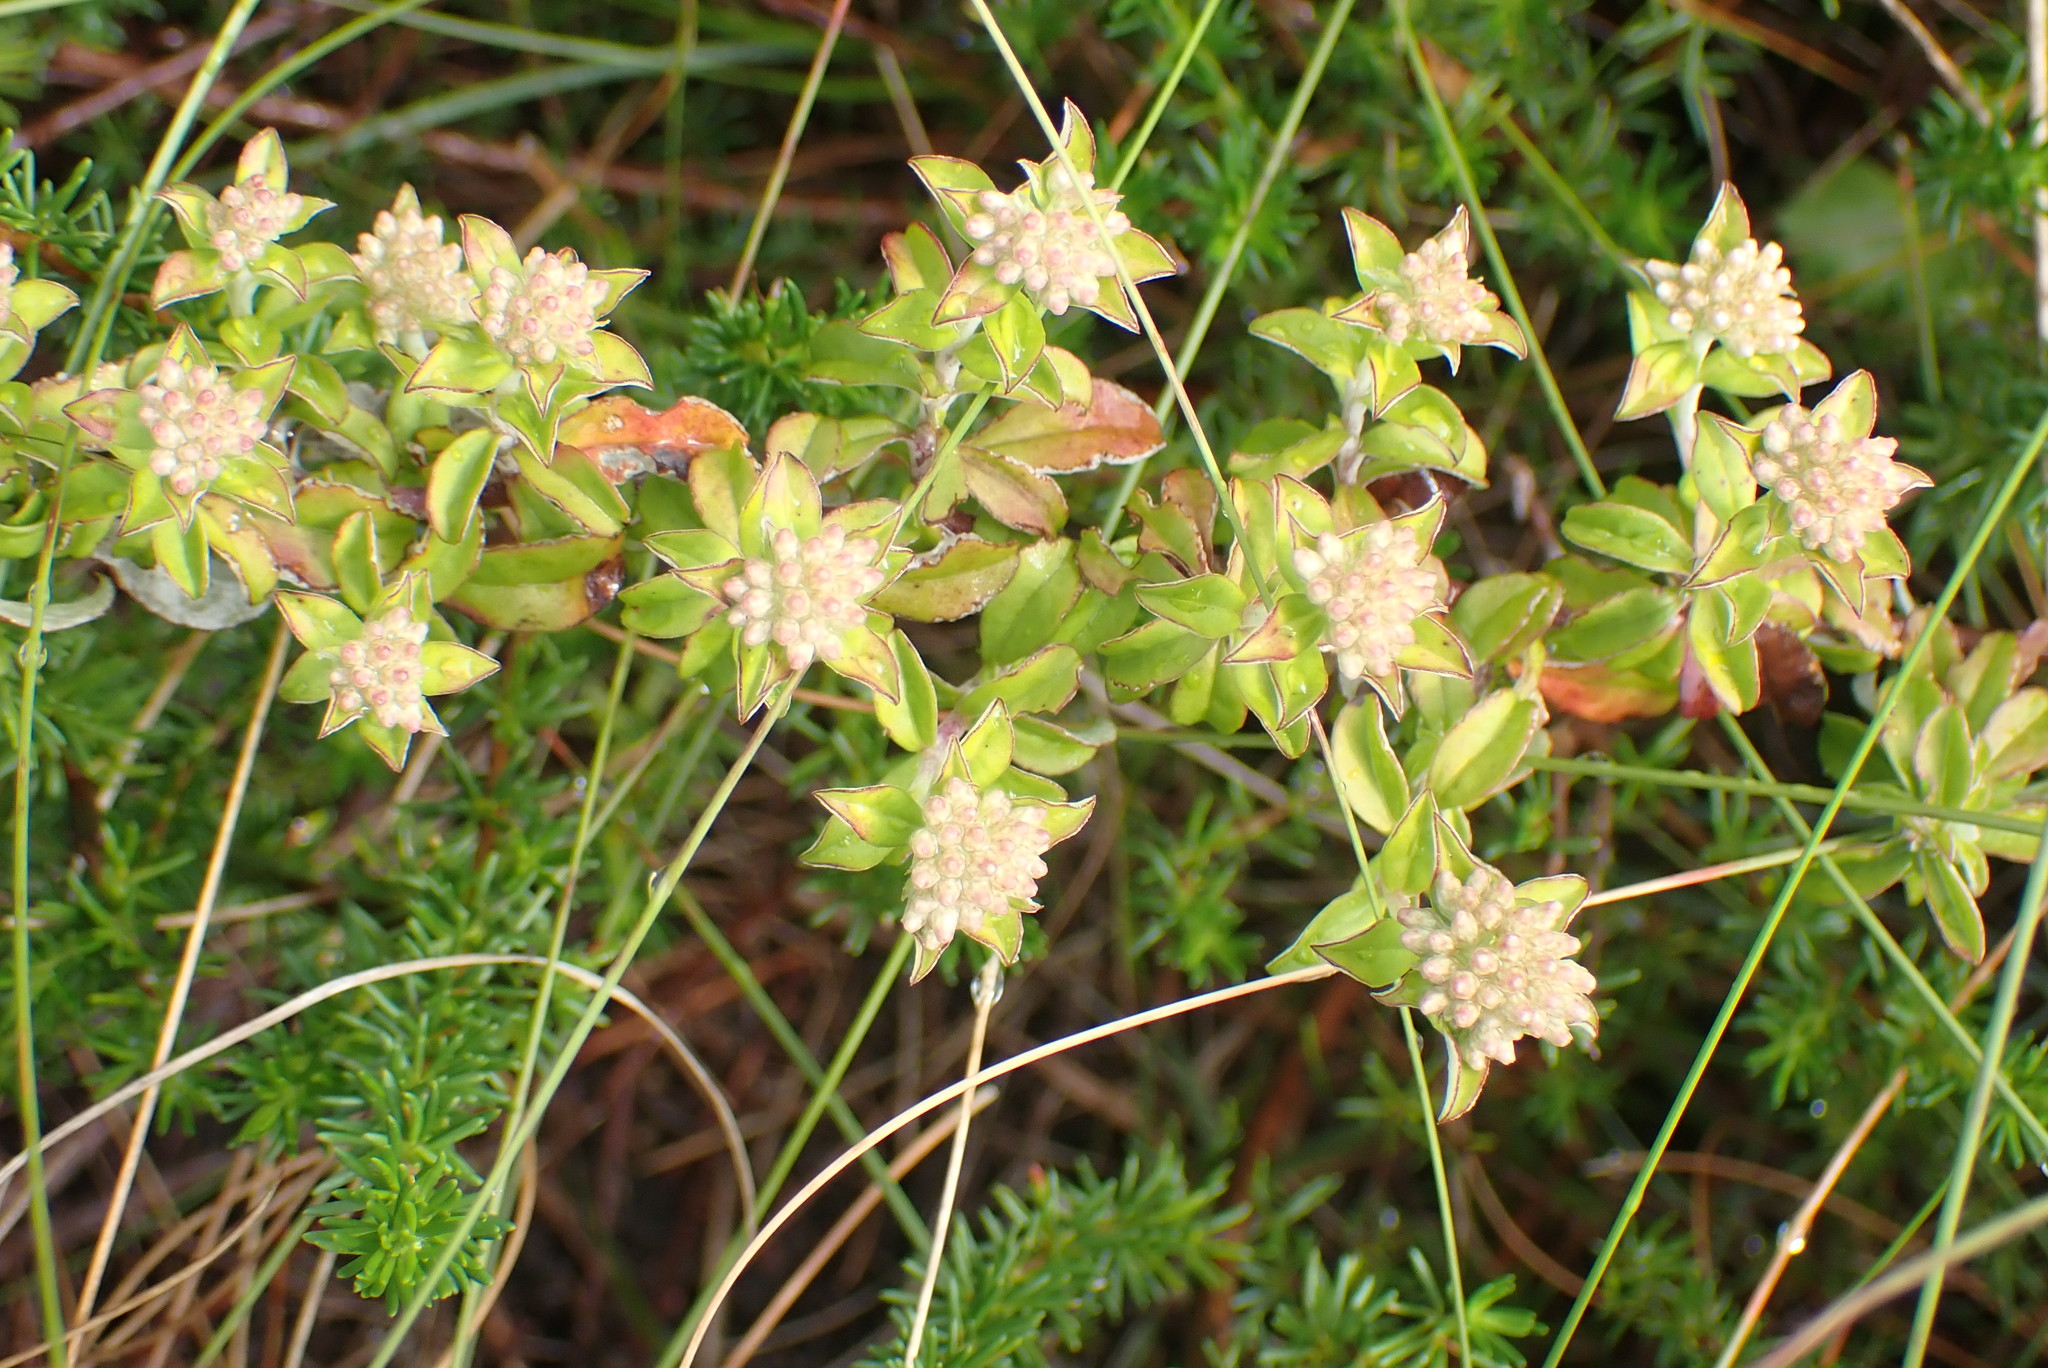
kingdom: Plantae
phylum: Tracheophyta
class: Magnoliopsida
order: Asterales
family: Asteraceae
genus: Plecostachys
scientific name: Plecostachys polifolia
